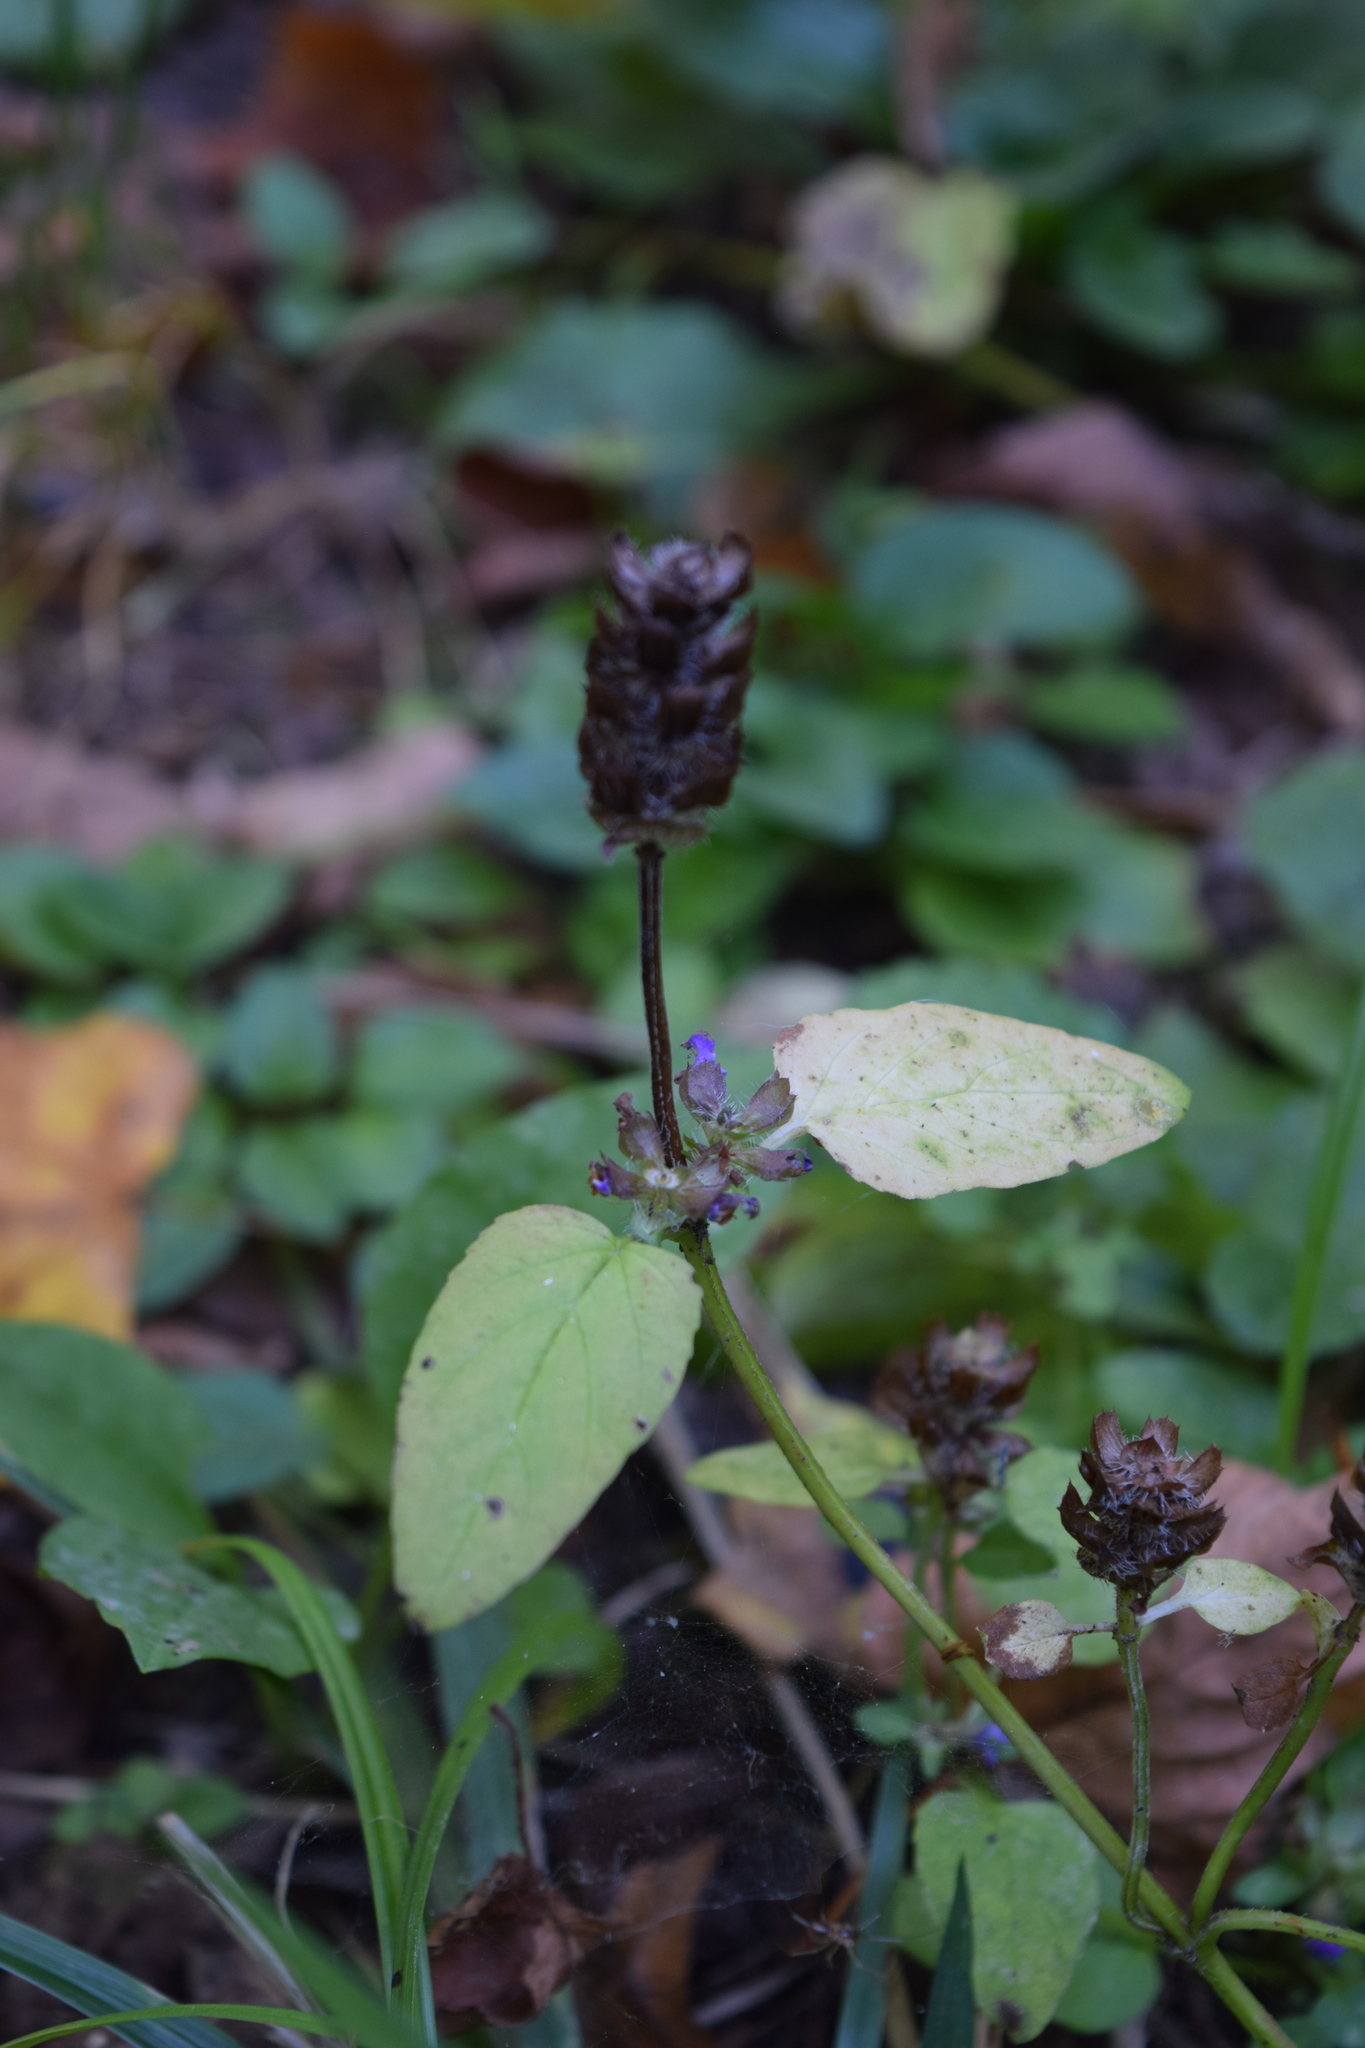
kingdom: Plantae
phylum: Tracheophyta
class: Magnoliopsida
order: Lamiales
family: Lamiaceae
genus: Prunella
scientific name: Prunella vulgaris
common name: Heal-all
